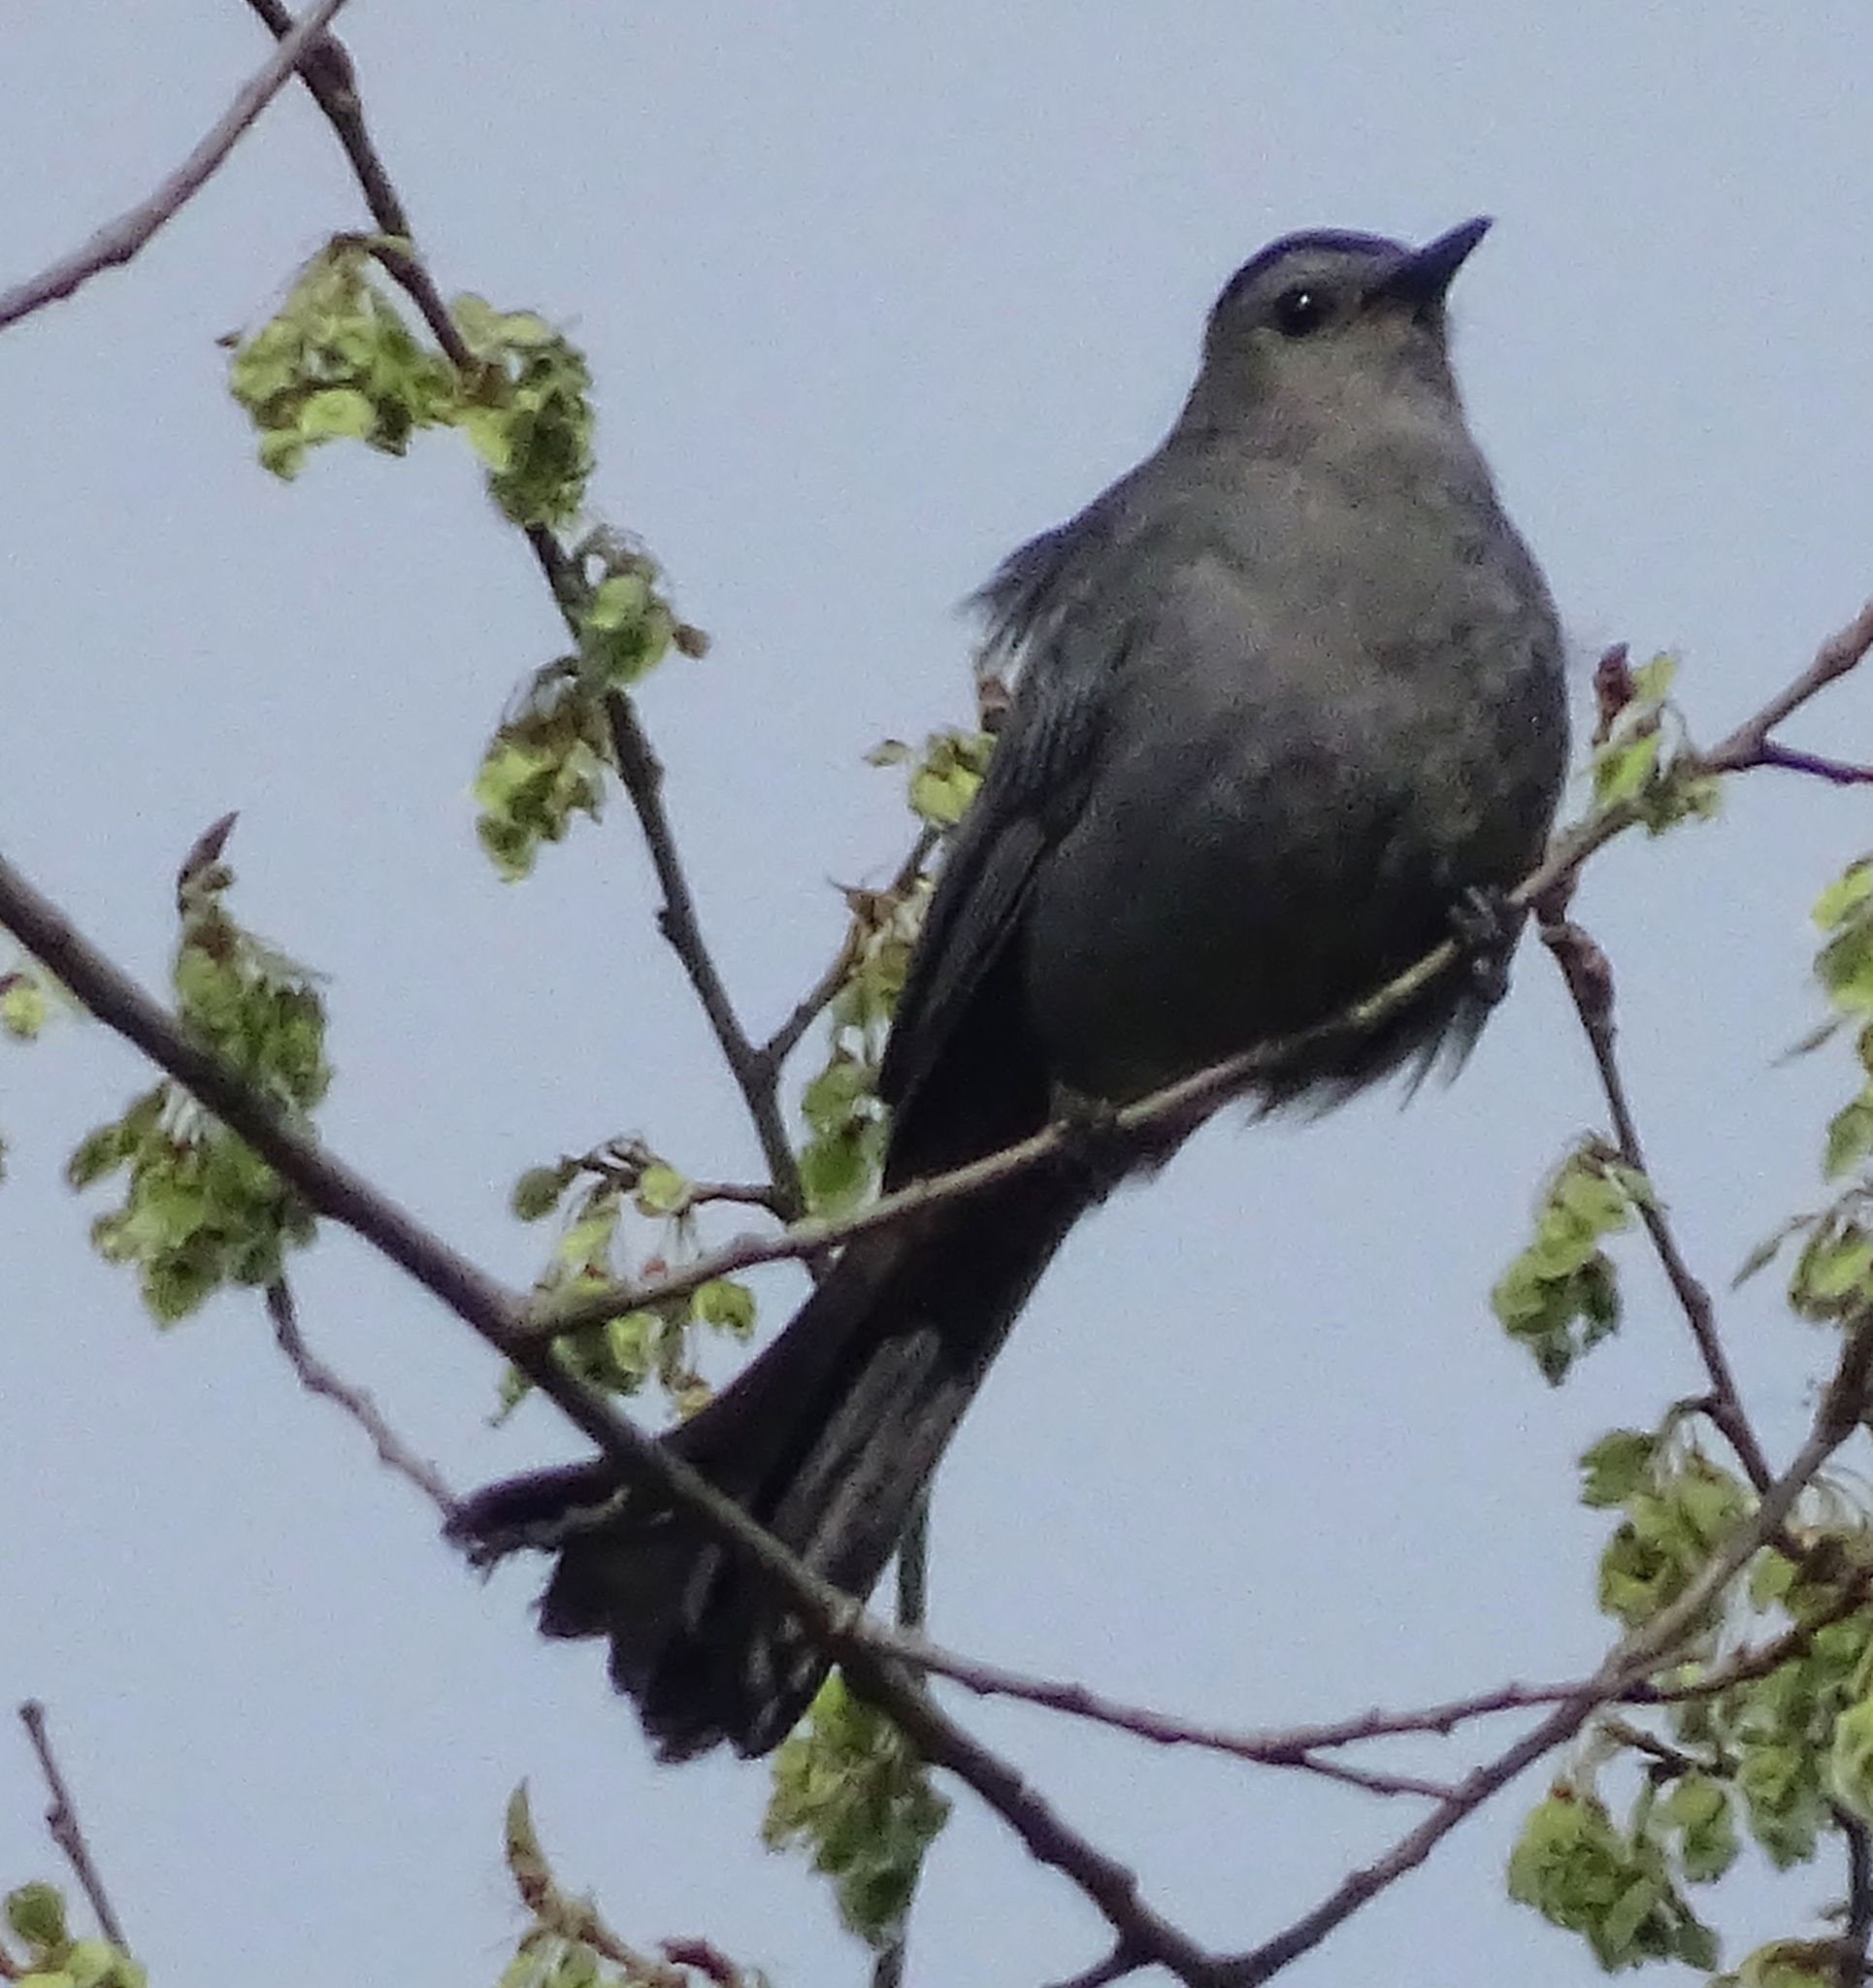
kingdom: Animalia
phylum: Chordata
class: Aves
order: Passeriformes
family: Mimidae
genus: Dumetella
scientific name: Dumetella carolinensis
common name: Gray catbird
